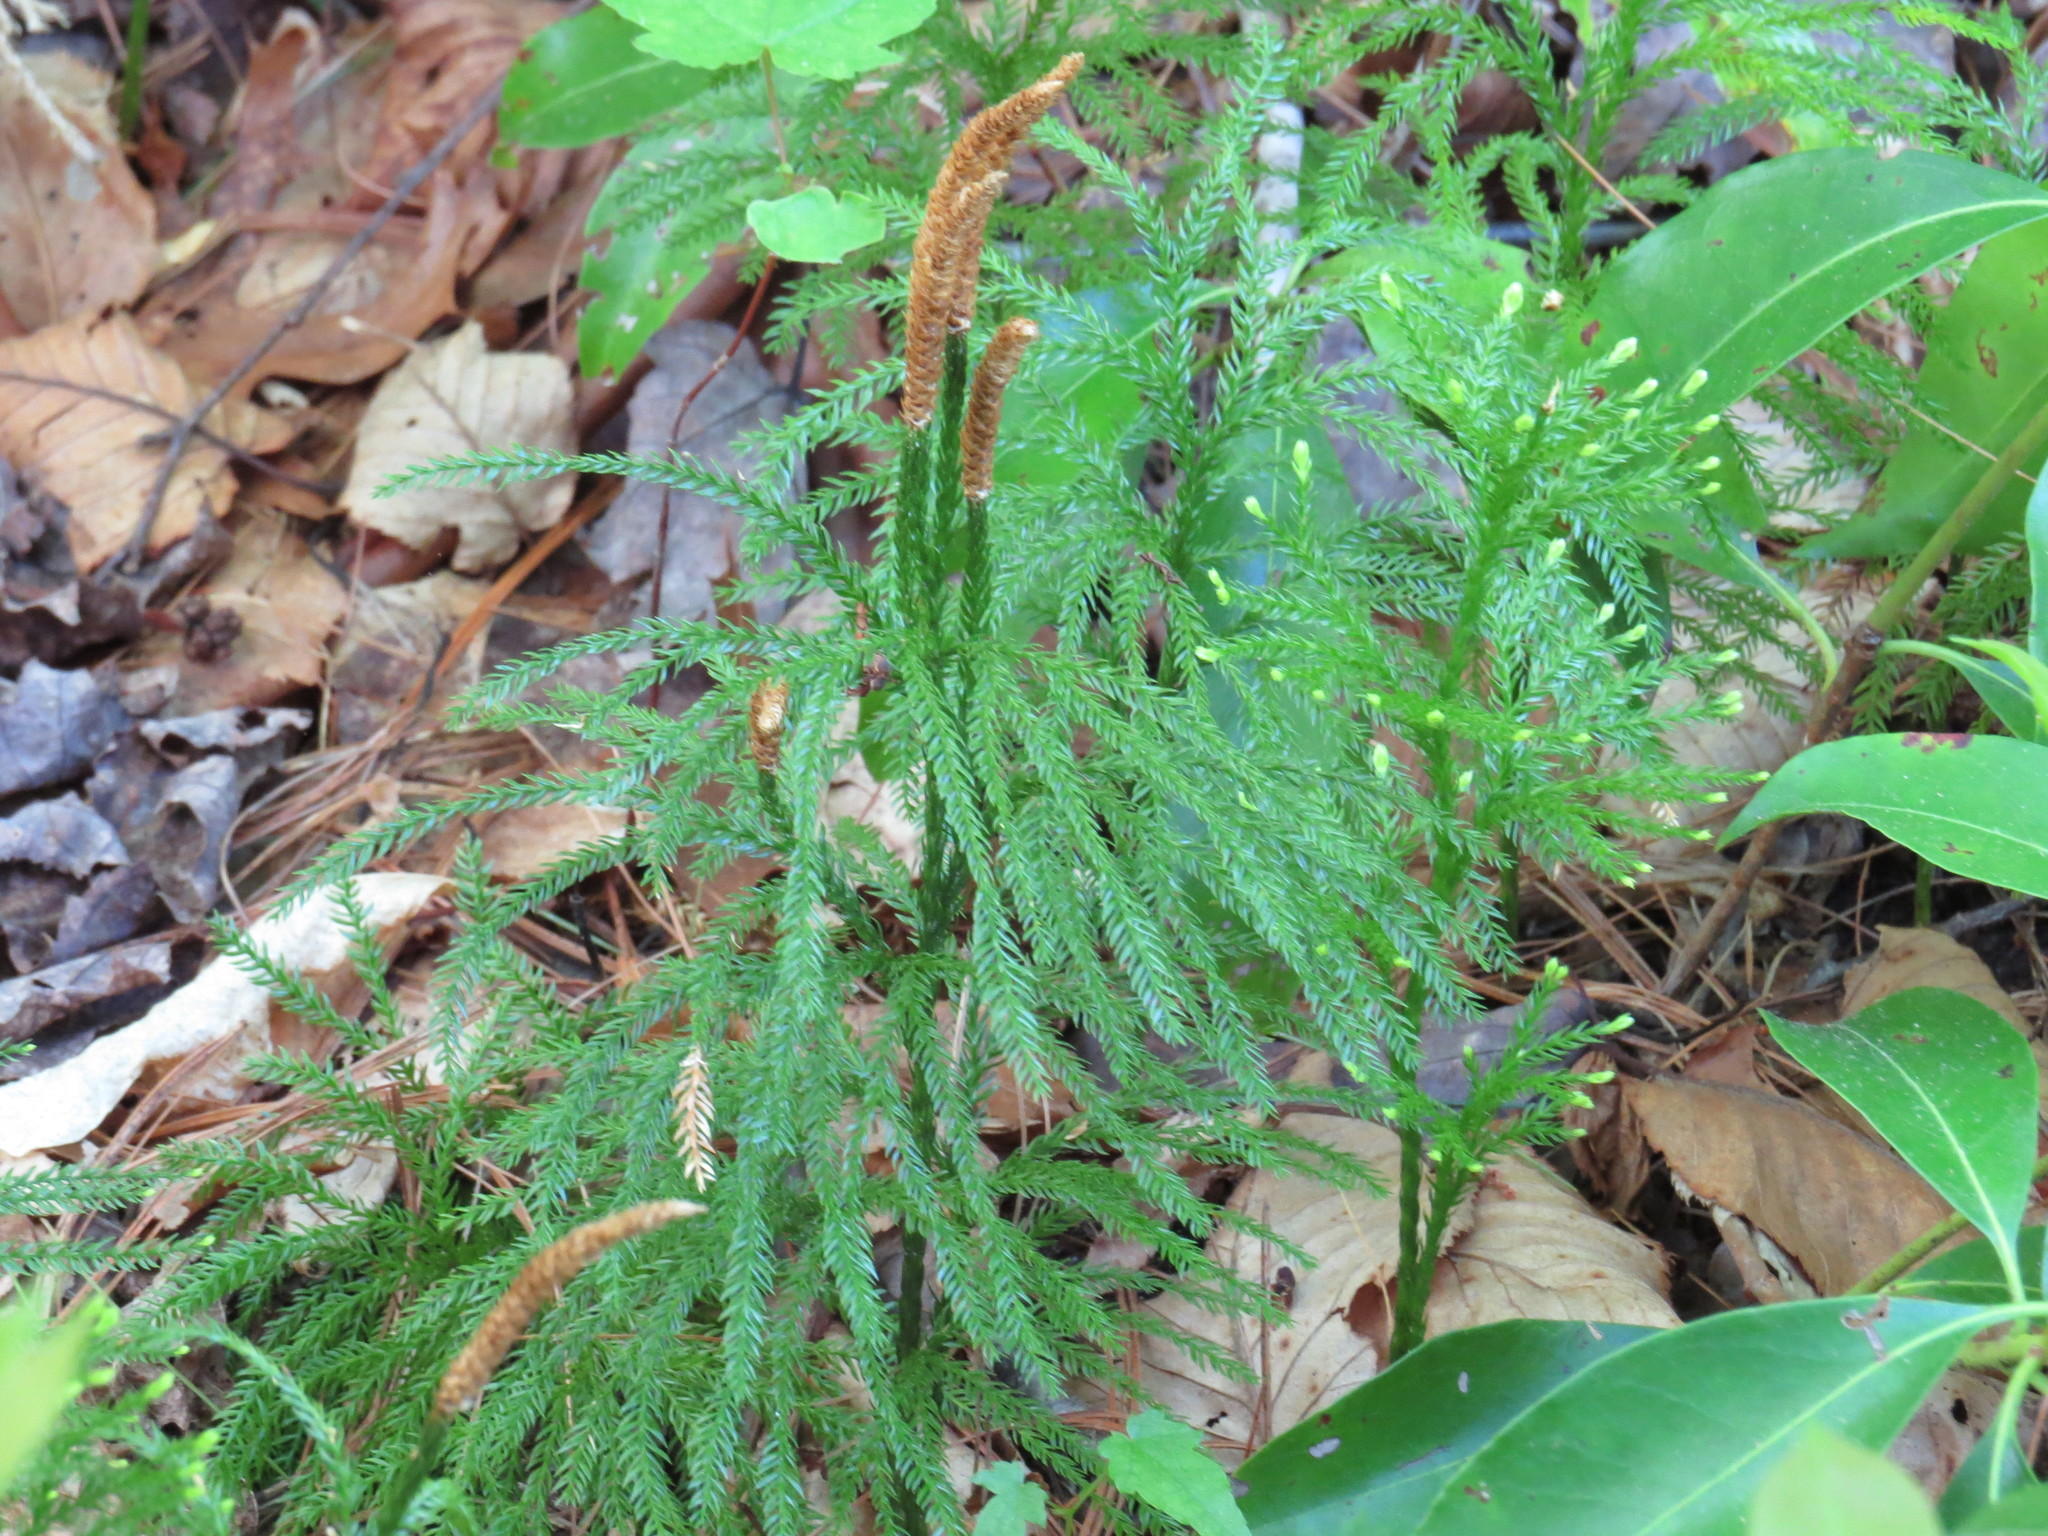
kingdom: Plantae
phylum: Tracheophyta
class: Lycopodiopsida
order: Lycopodiales
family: Lycopodiaceae
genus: Dendrolycopodium
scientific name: Dendrolycopodium obscurum
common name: Common ground-pine
